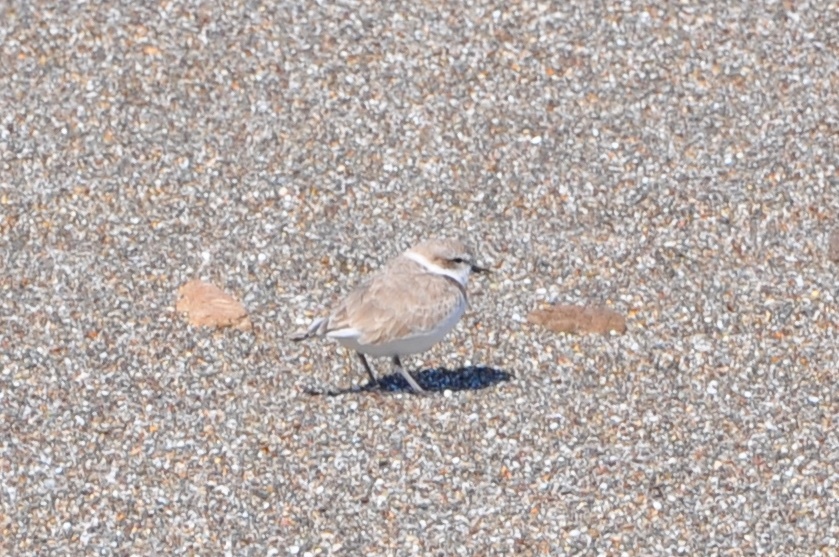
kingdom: Animalia
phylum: Chordata
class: Aves
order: Charadriiformes
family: Charadriidae
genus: Anarhynchus
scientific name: Anarhynchus
